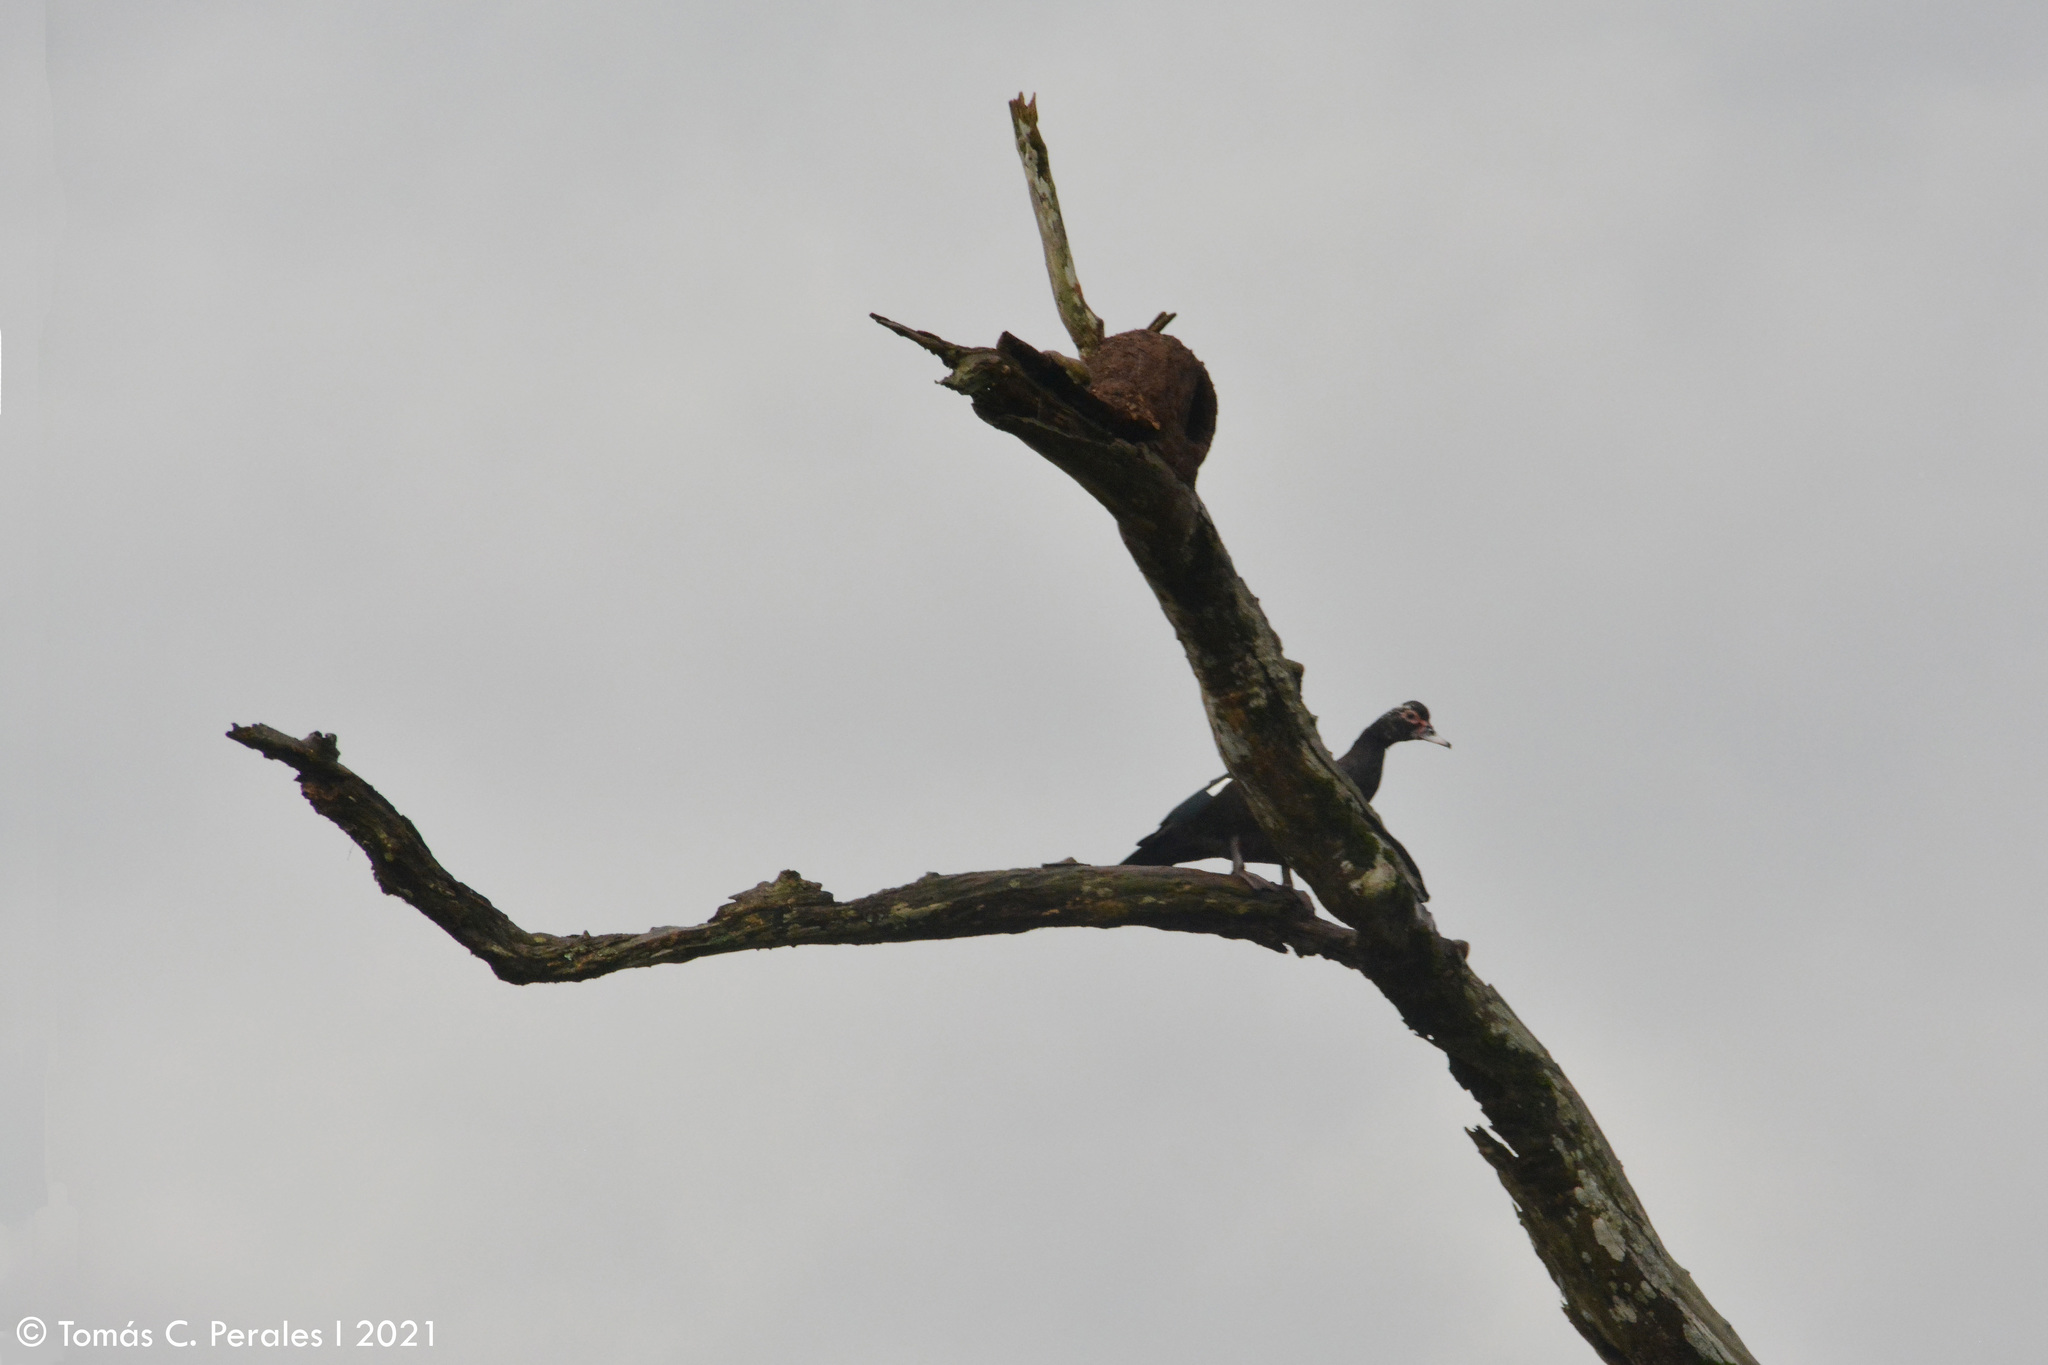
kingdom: Animalia
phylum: Chordata
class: Aves
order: Anseriformes
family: Anatidae
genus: Cairina
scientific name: Cairina moschata
